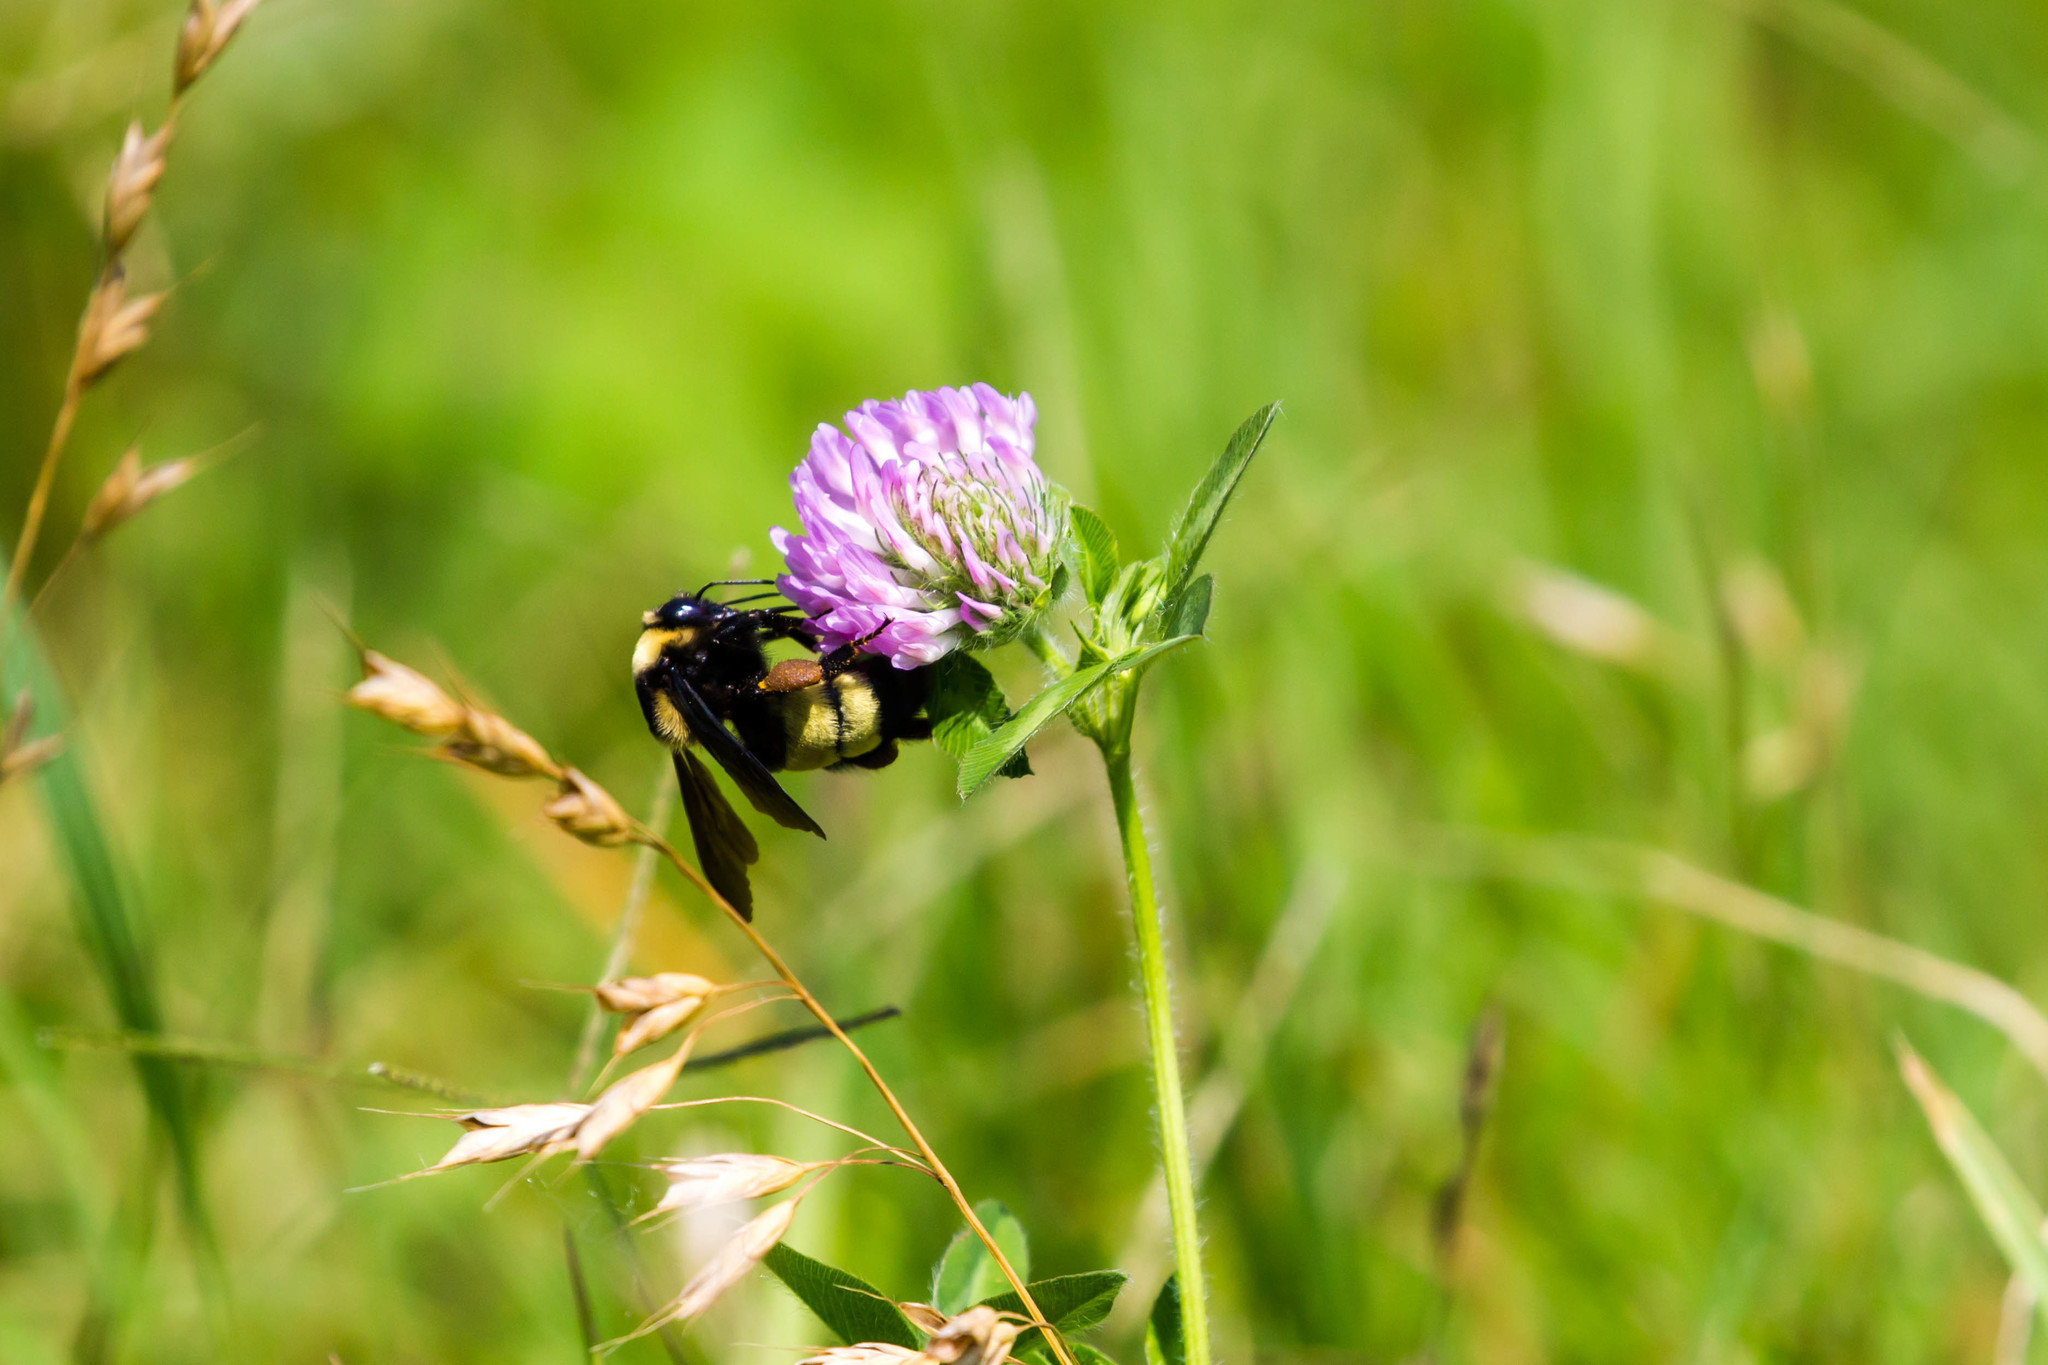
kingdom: Animalia
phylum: Arthropoda
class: Insecta
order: Hymenoptera
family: Apidae
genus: Bombus
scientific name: Bombus auricomus
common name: Black and gold bumble bee
